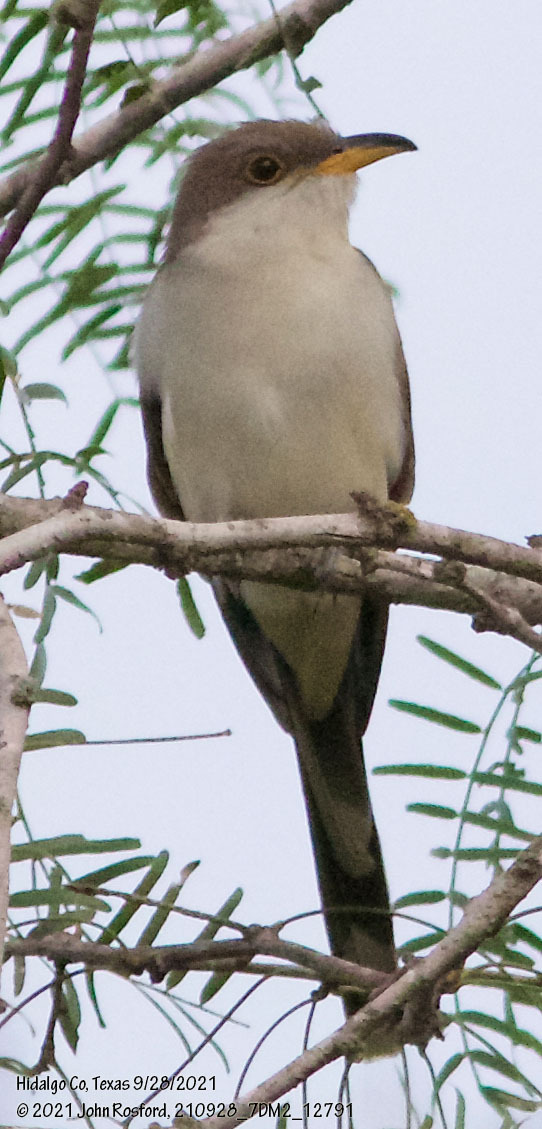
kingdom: Animalia
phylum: Chordata
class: Aves
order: Cuculiformes
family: Cuculidae
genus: Coccyzus
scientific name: Coccyzus americanus
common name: Yellow-billed cuckoo
